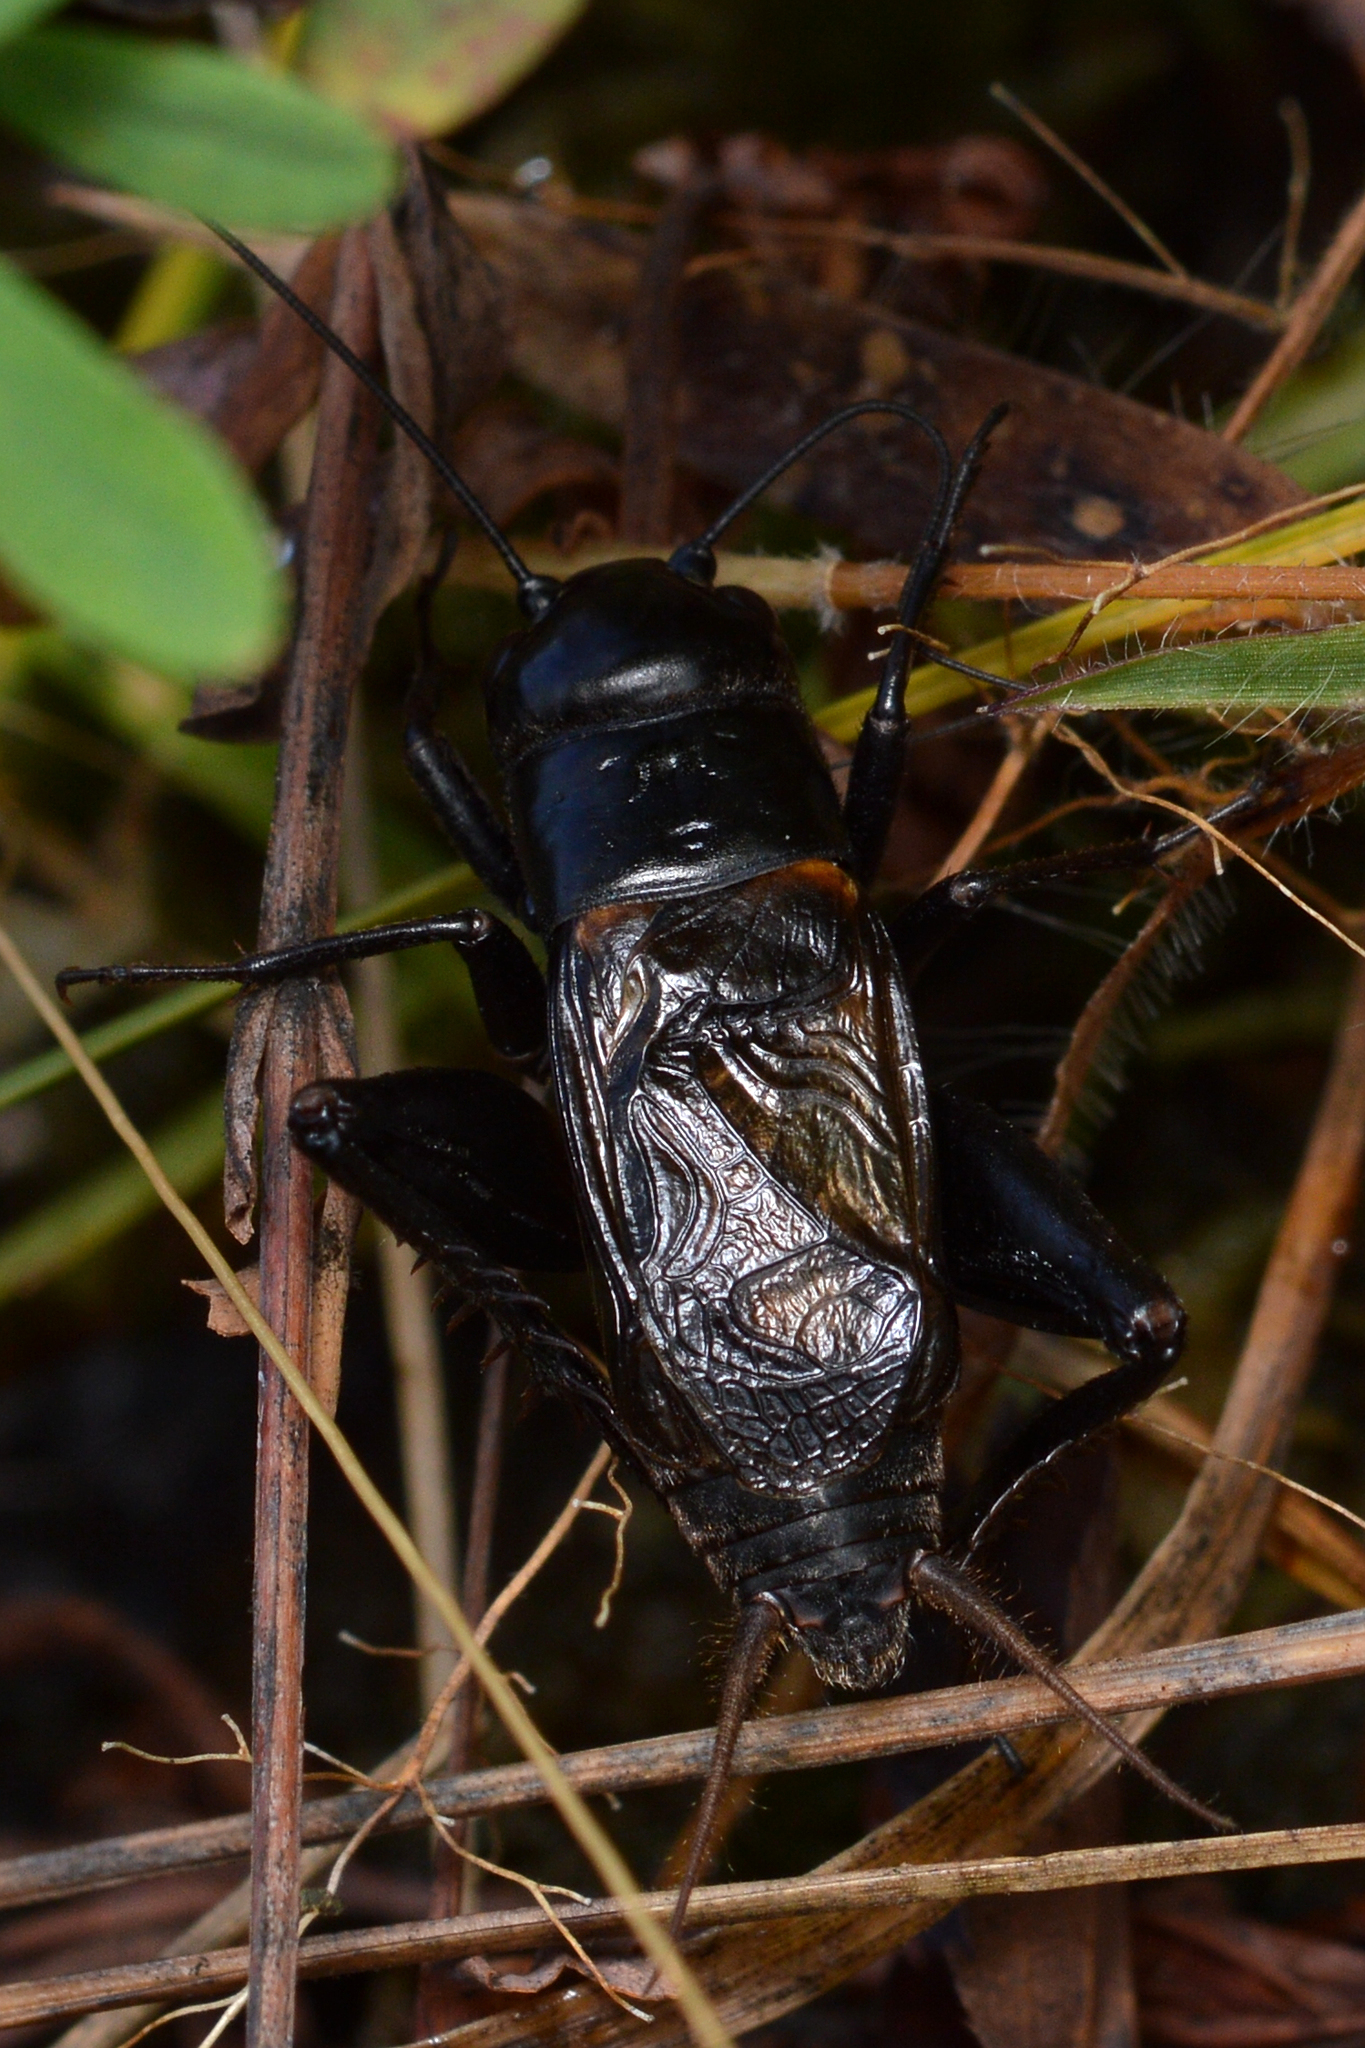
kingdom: Animalia
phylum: Arthropoda
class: Insecta
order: Orthoptera
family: Gryllidae
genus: Gryllus
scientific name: Gryllus pennsylvanicus
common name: Fall field cricket
